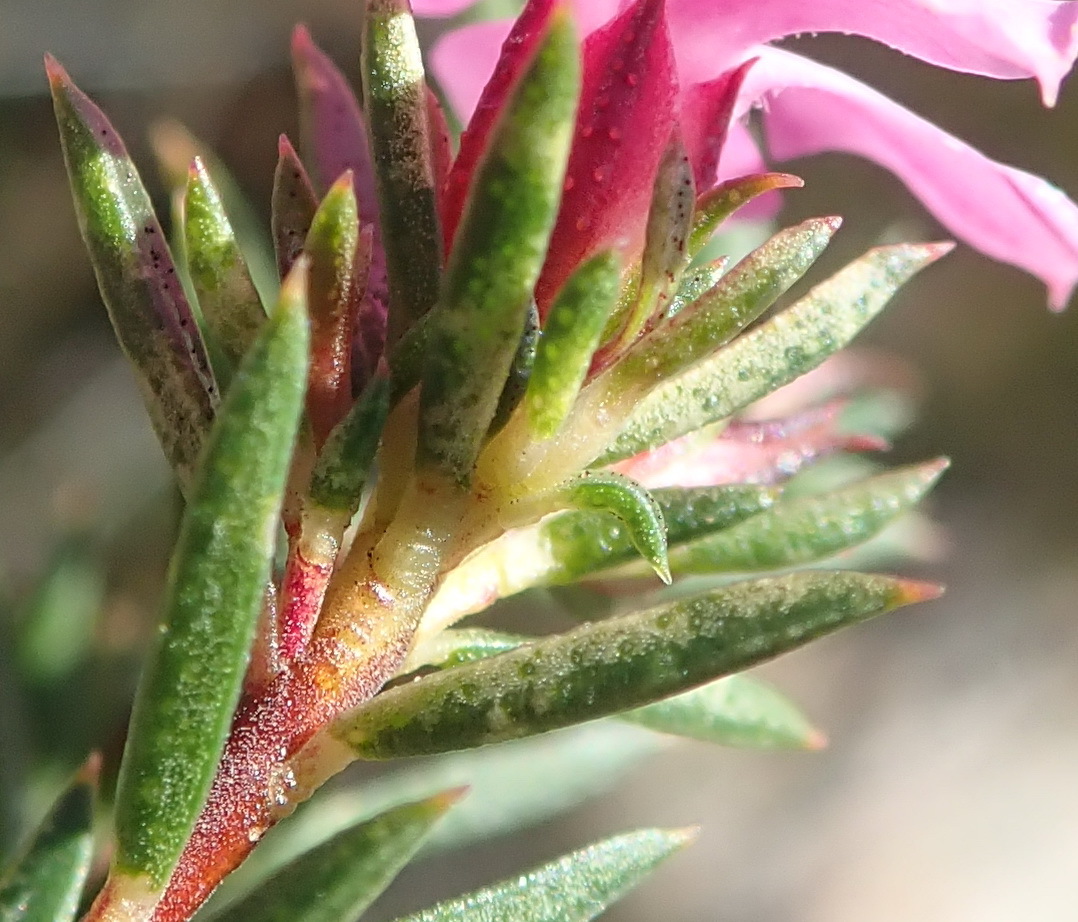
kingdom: Plantae
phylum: Tracheophyta
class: Magnoliopsida
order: Sapindales
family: Rutaceae
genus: Acmadenia
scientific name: Acmadenia maculata
